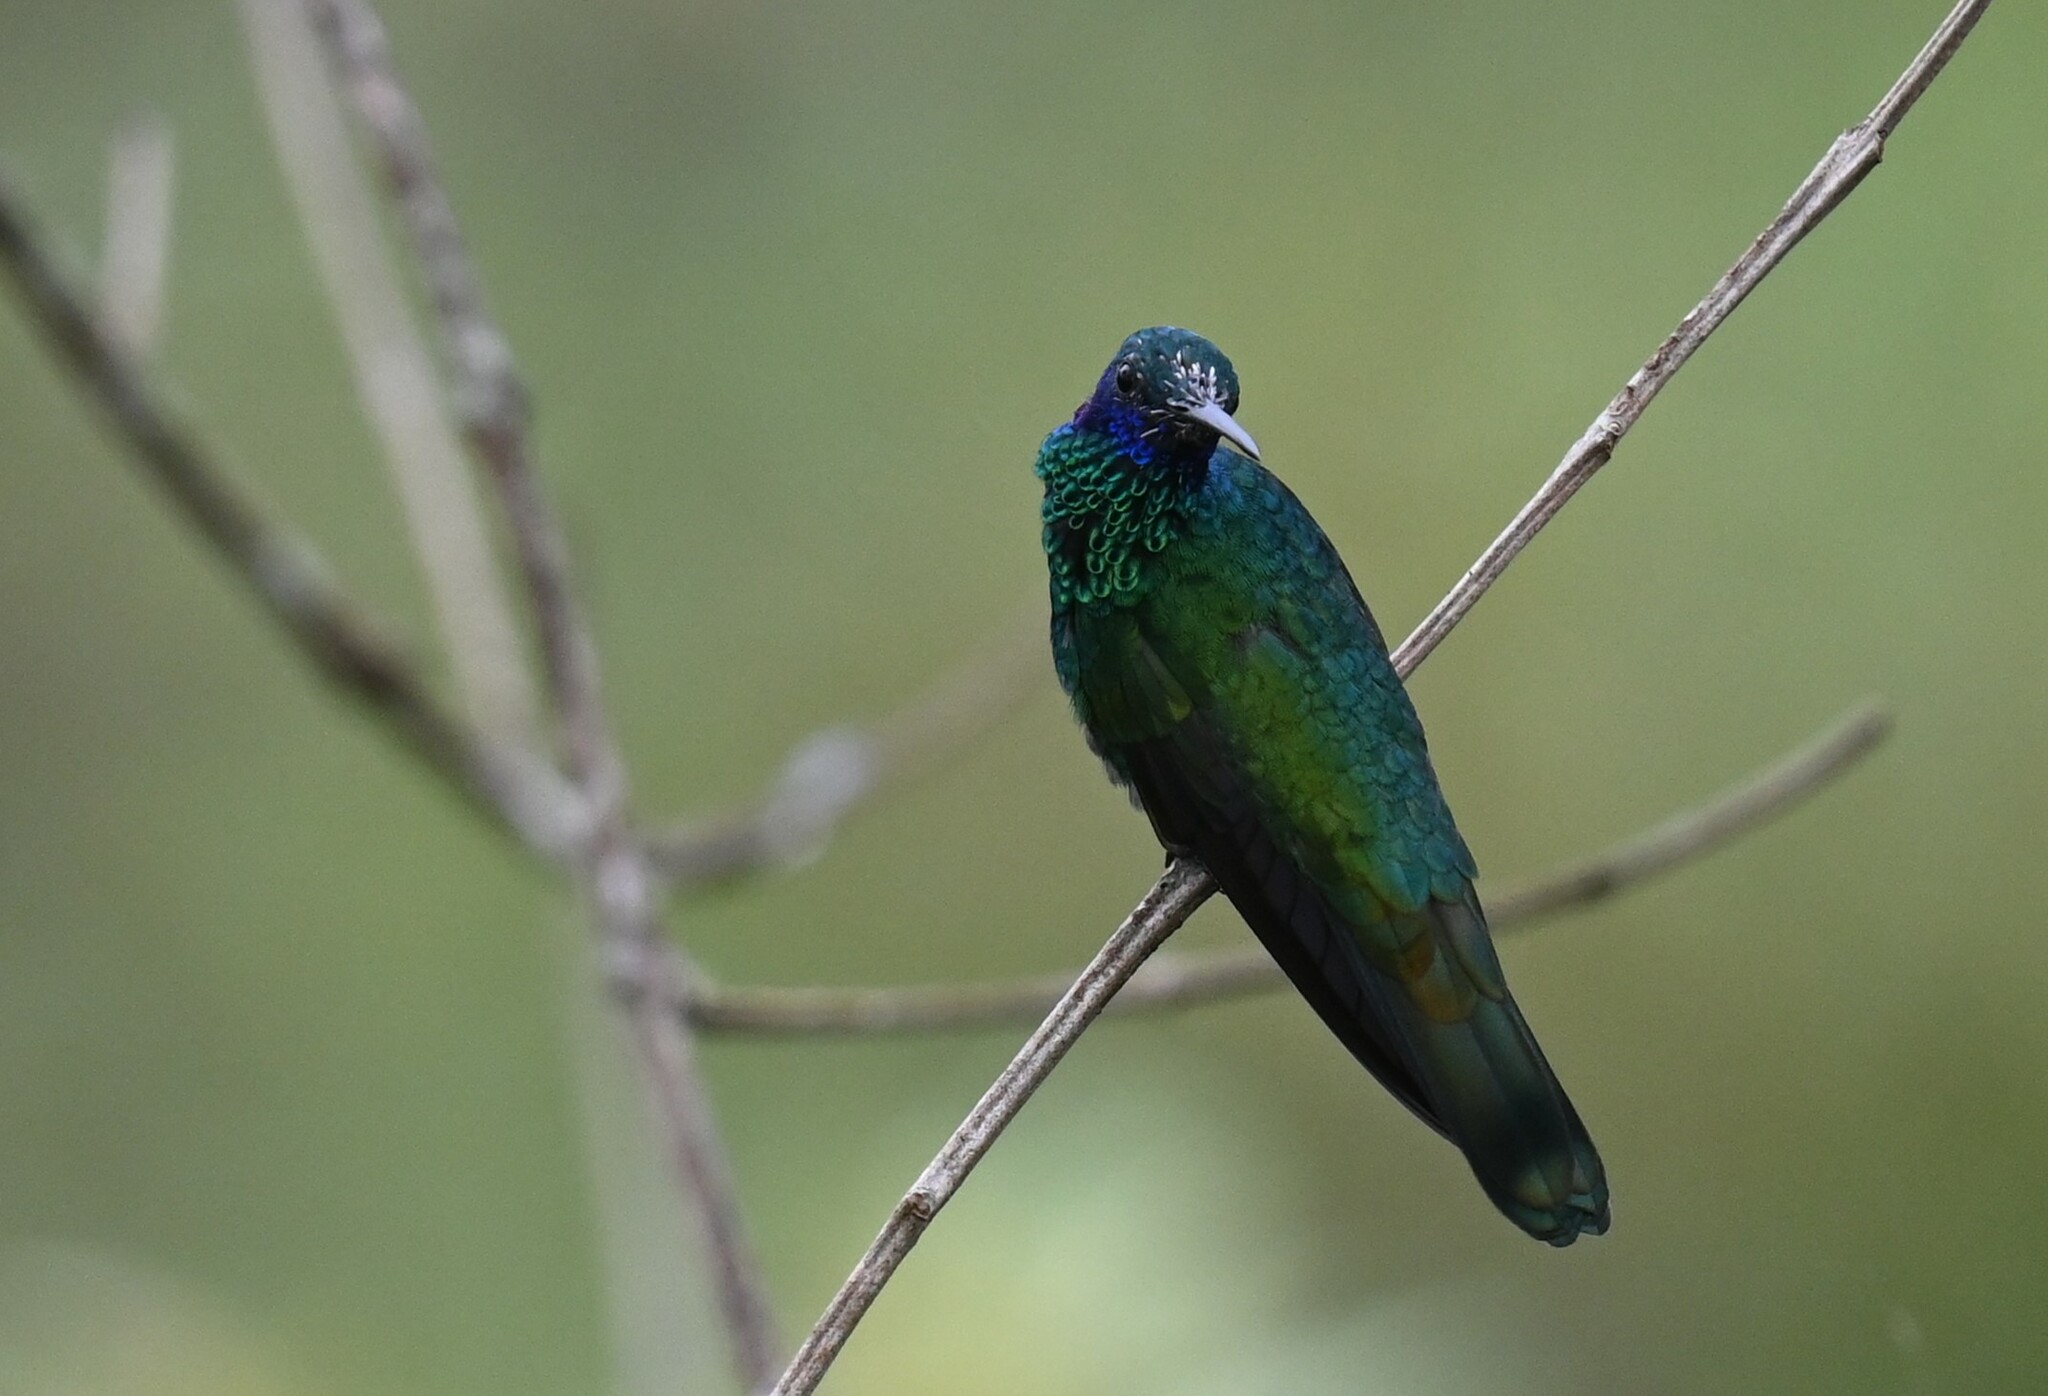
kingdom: Animalia
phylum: Chordata
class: Aves
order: Apodiformes
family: Trochilidae
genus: Colibri
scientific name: Colibri coruscans
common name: Sparkling violetear
